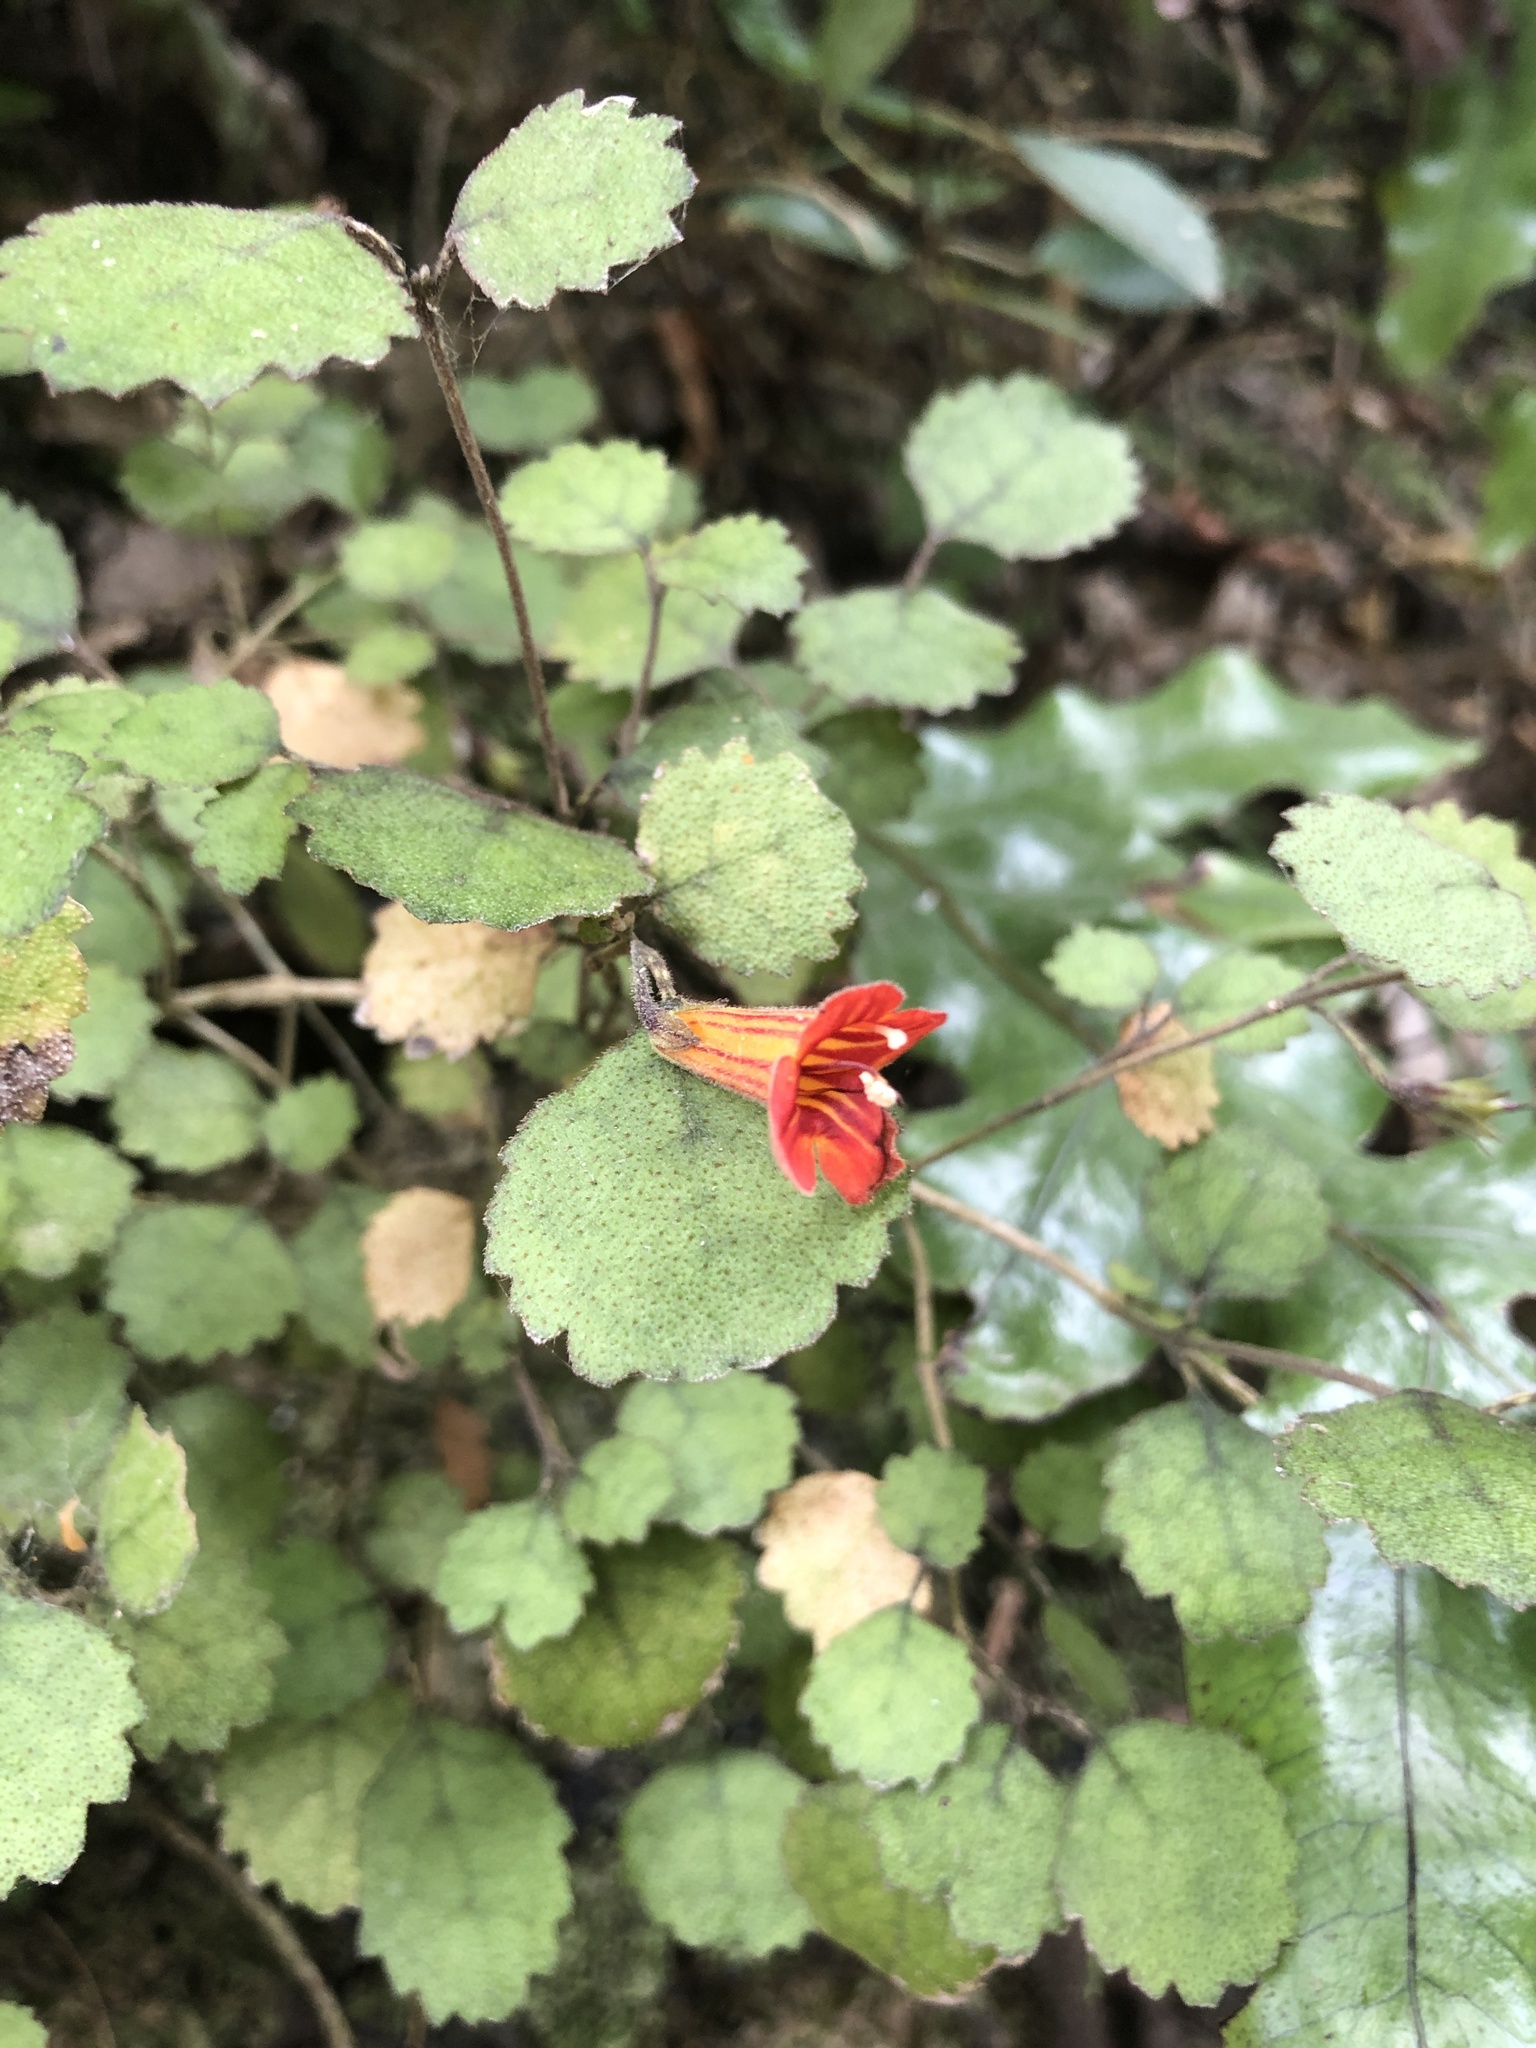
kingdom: Plantae
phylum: Tracheophyta
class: Magnoliopsida
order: Lamiales
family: Gesneriaceae
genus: Rhabdothamnus
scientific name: Rhabdothamnus solandri
